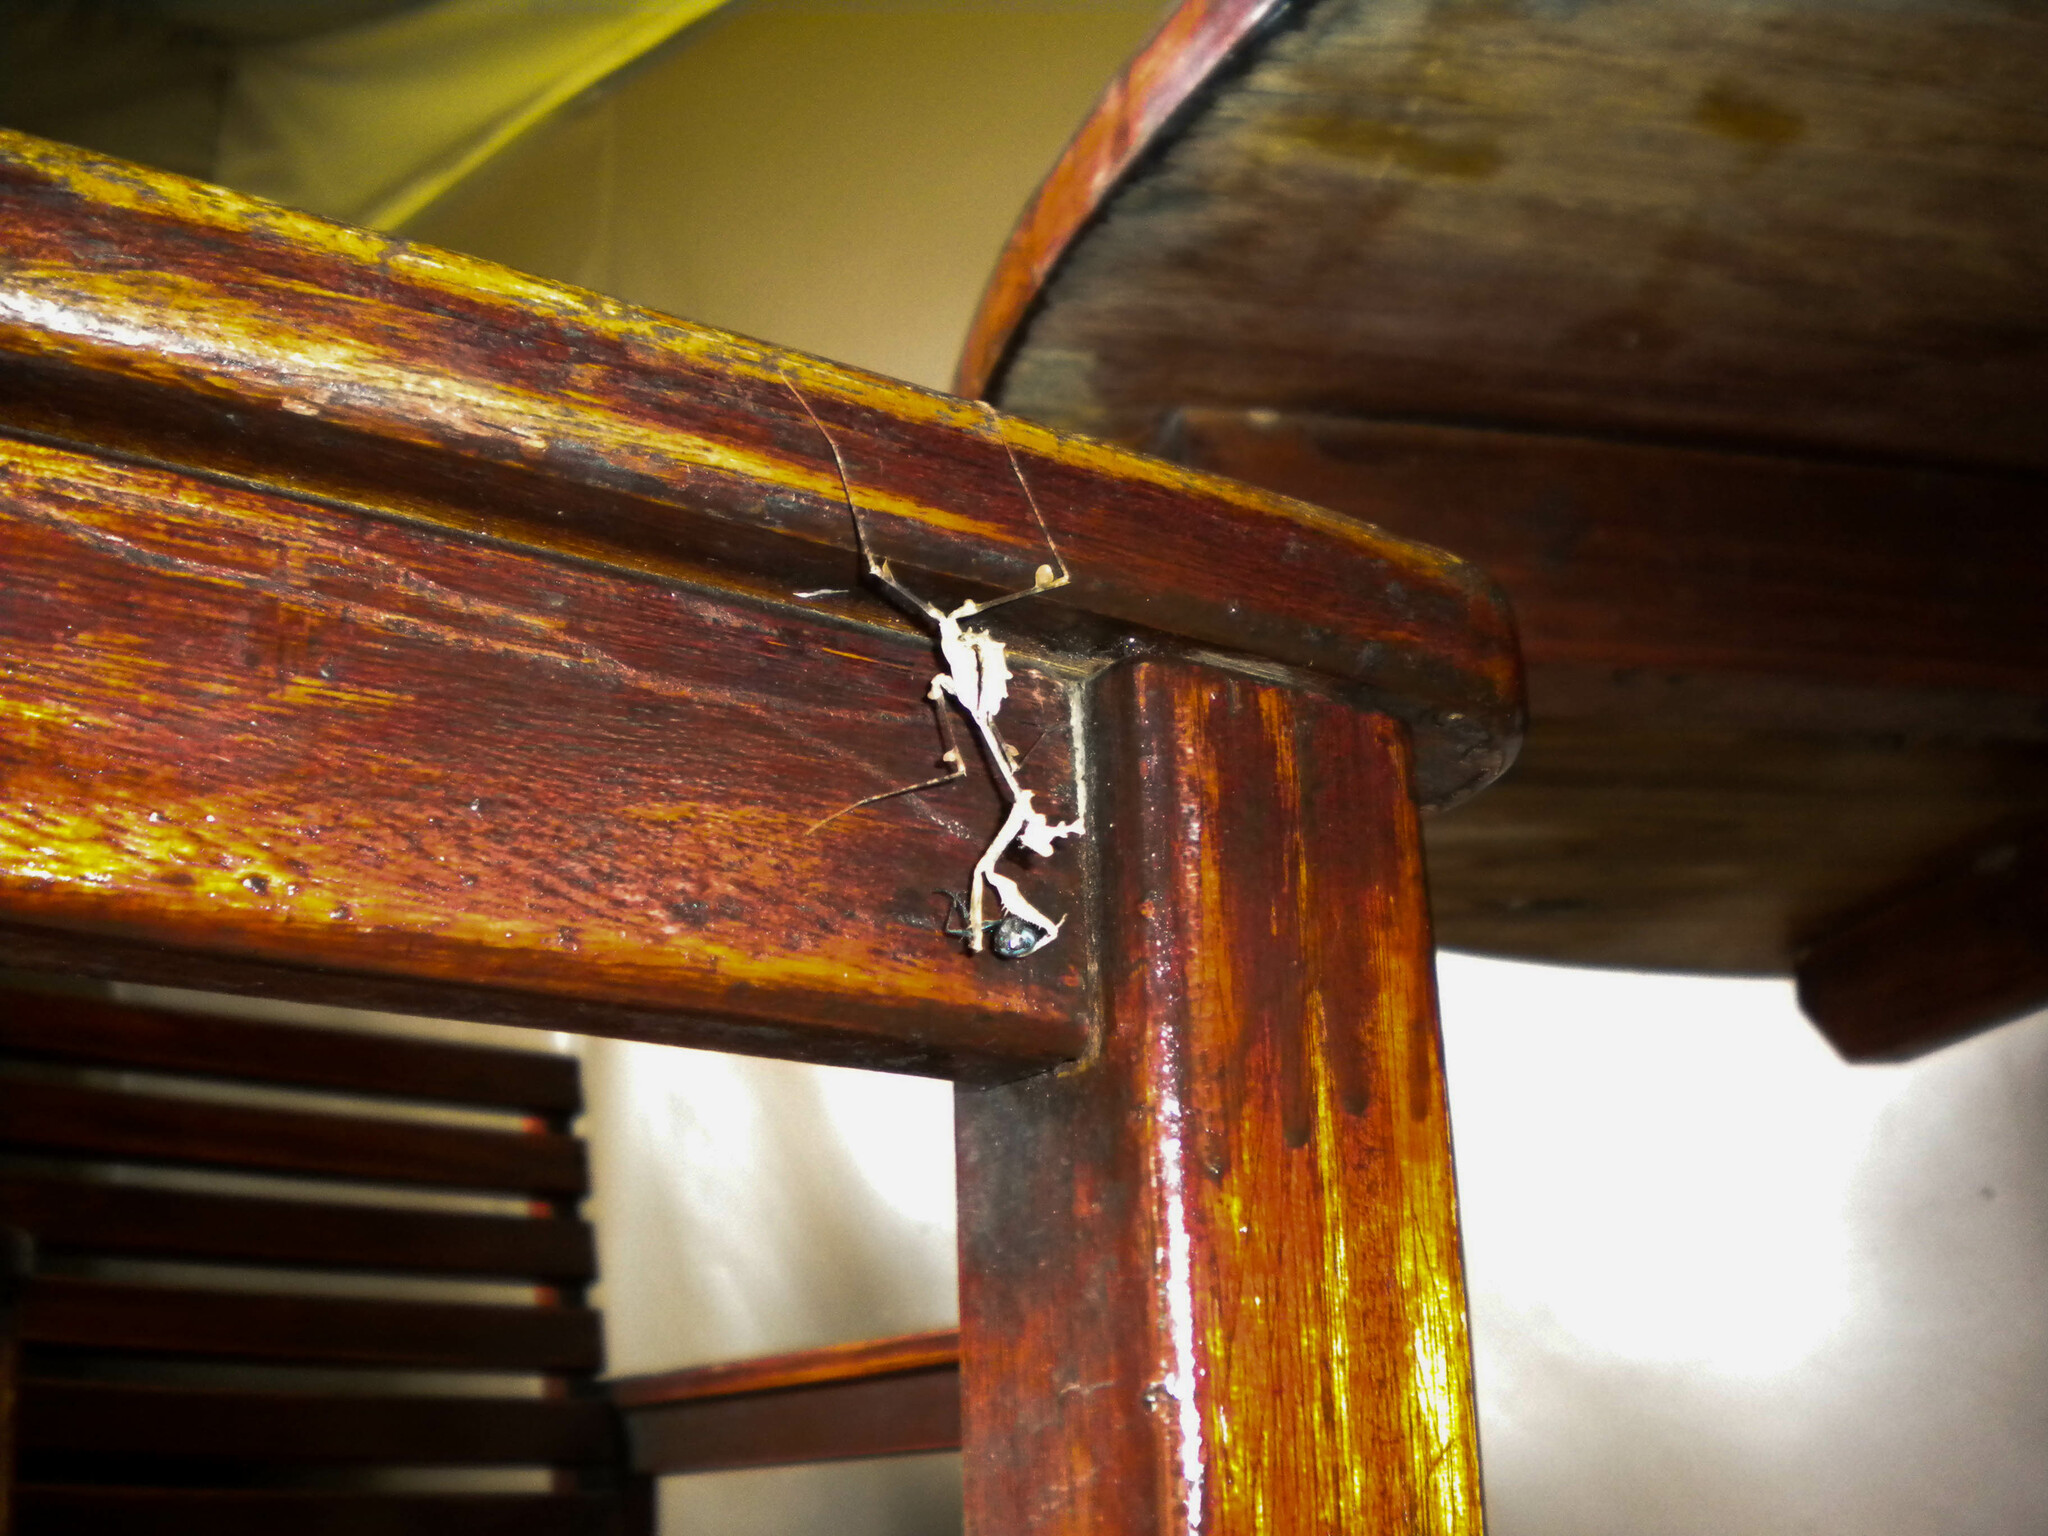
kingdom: Animalia
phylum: Arthropoda
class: Insecta
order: Mantodea
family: Hymenopodidae
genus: Sibylla
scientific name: Sibylla pretiosa
